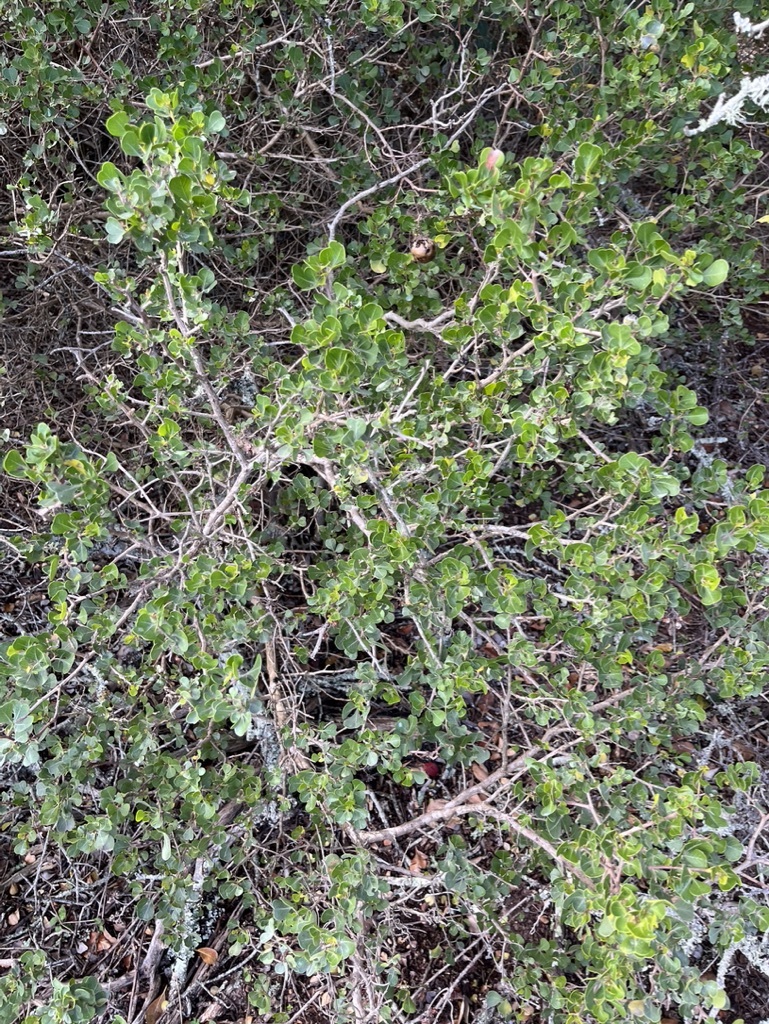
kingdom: Plantae
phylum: Tracheophyta
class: Magnoliopsida
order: Sapindales
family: Anacardiaceae
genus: Searsia
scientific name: Searsia glauca
